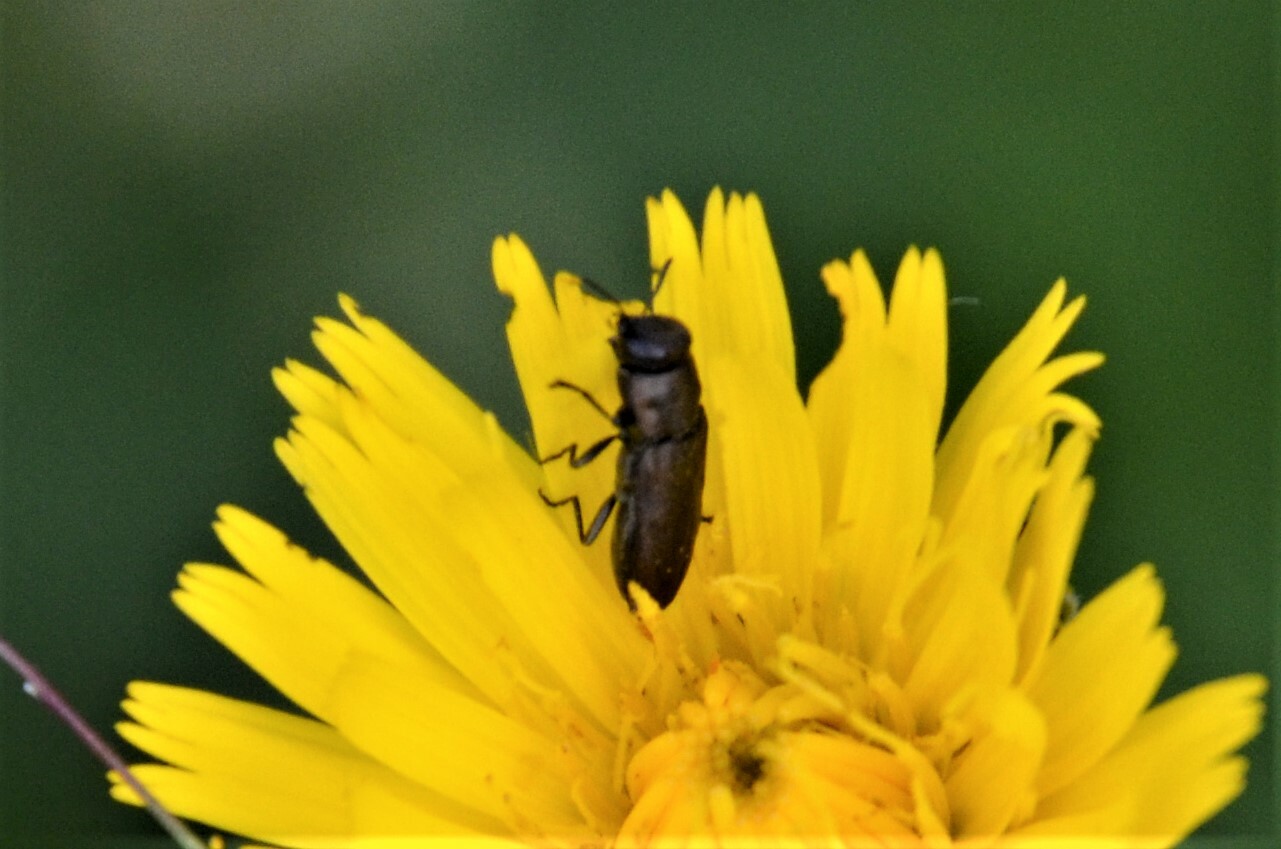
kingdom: Animalia
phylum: Arthropoda
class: Insecta
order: Coleoptera
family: Buprestidae
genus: Anthaxia
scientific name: Anthaxia quadripunctata
